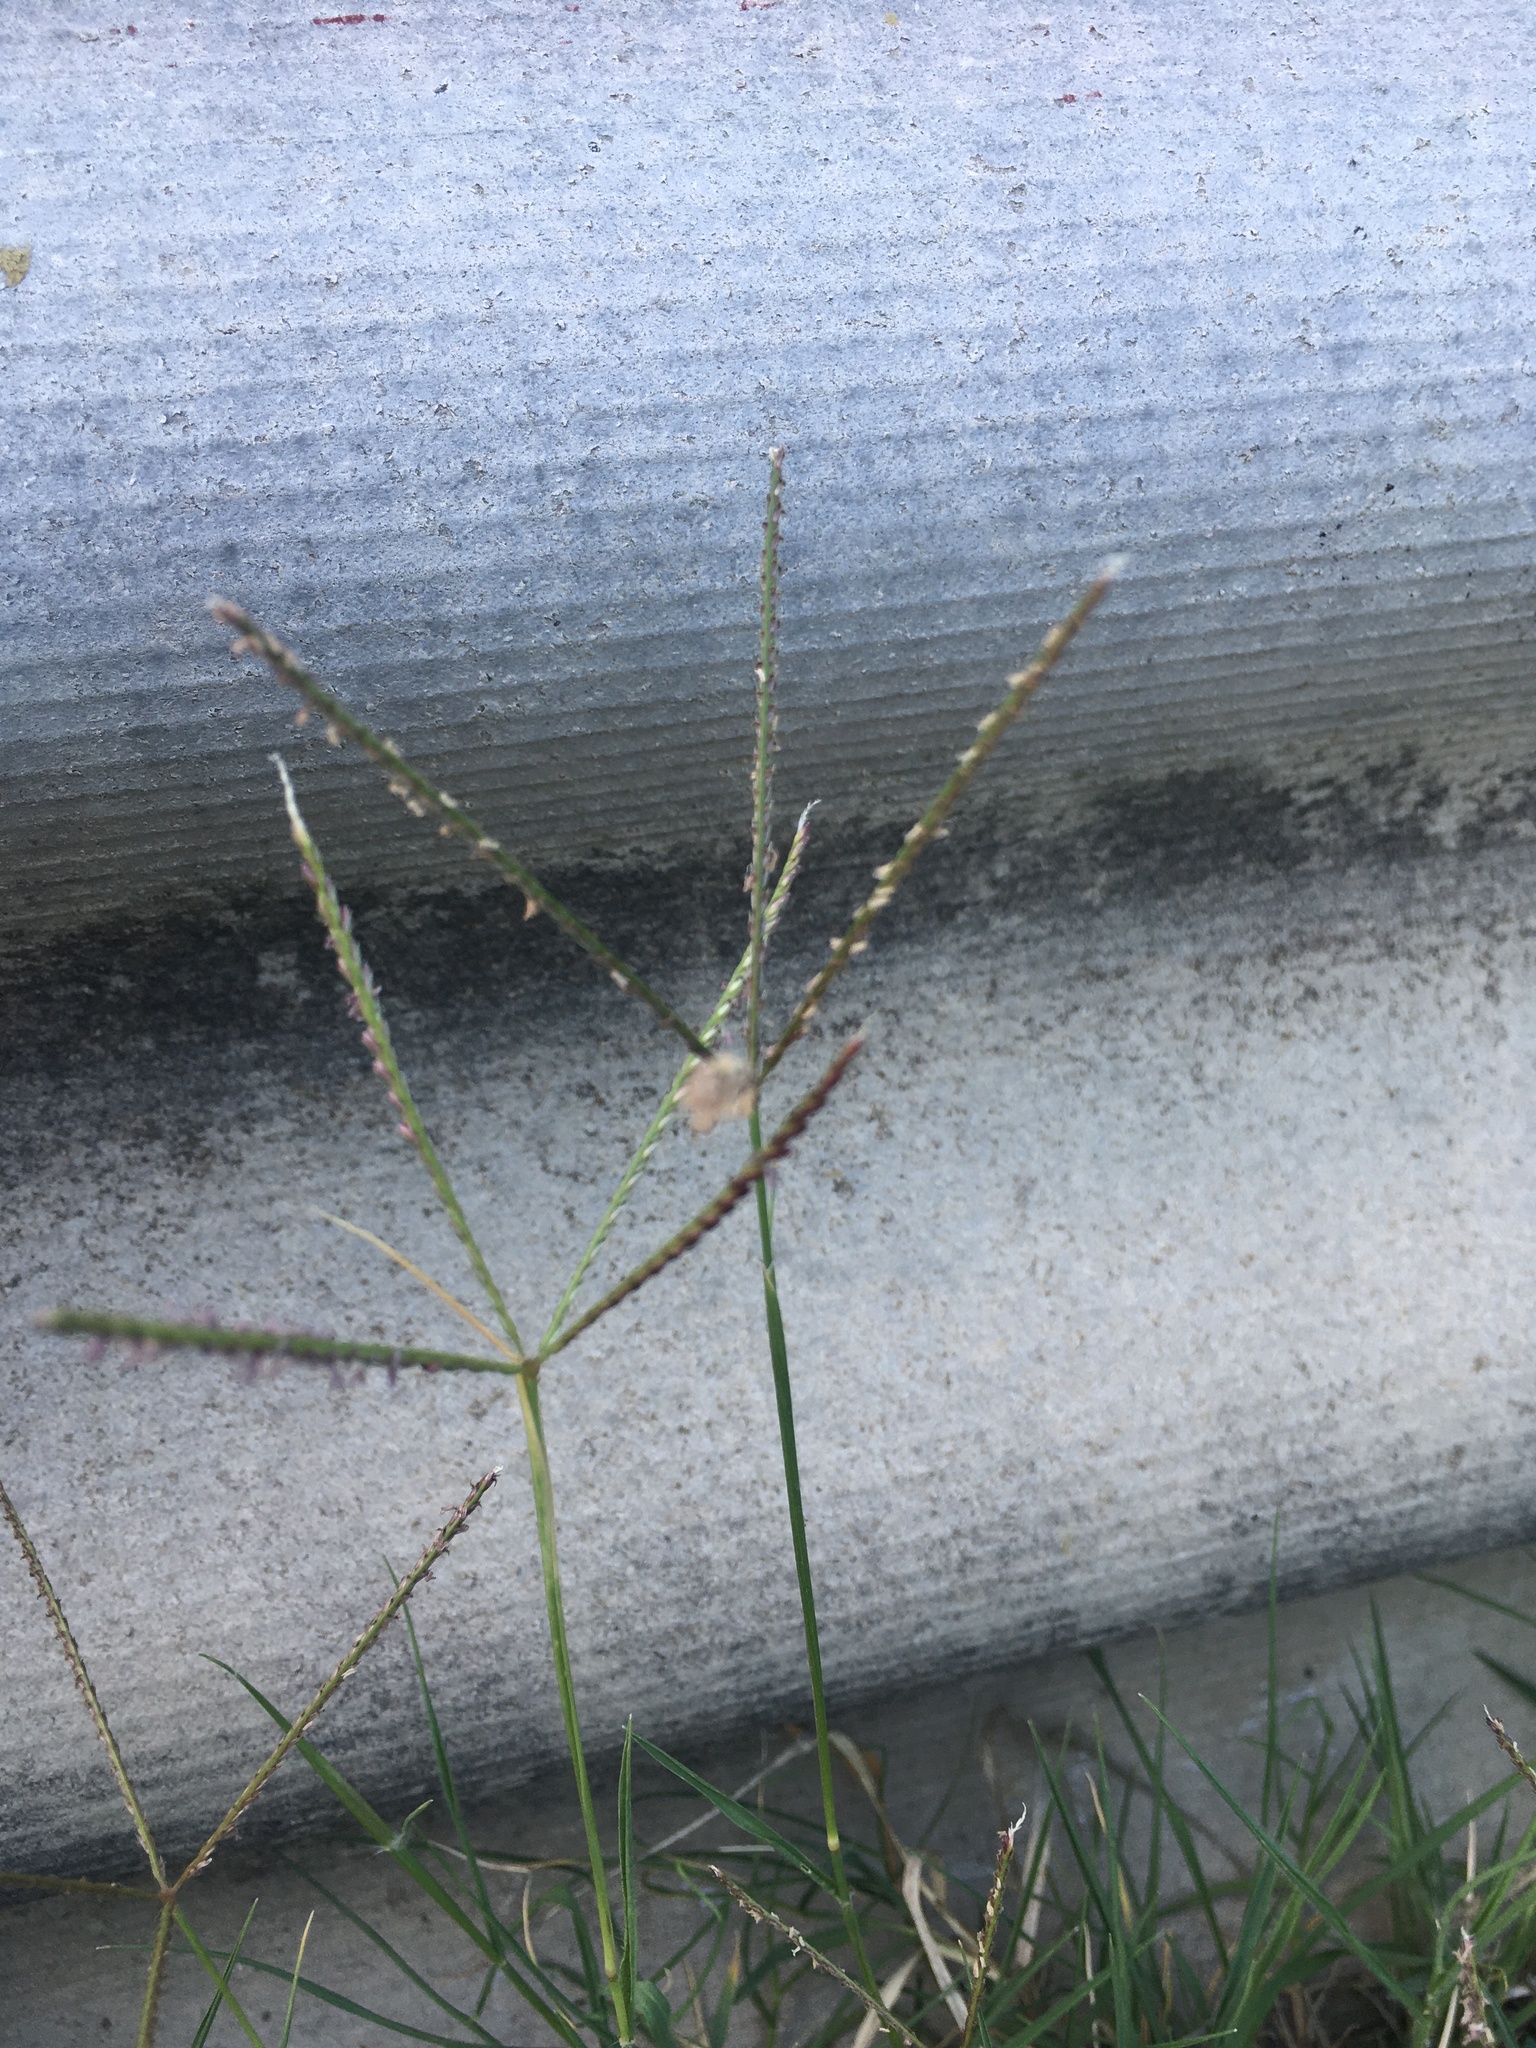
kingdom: Plantae
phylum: Tracheophyta
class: Liliopsida
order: Poales
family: Poaceae
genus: Cynodon
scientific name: Cynodon dactylon
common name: Bermuda grass
